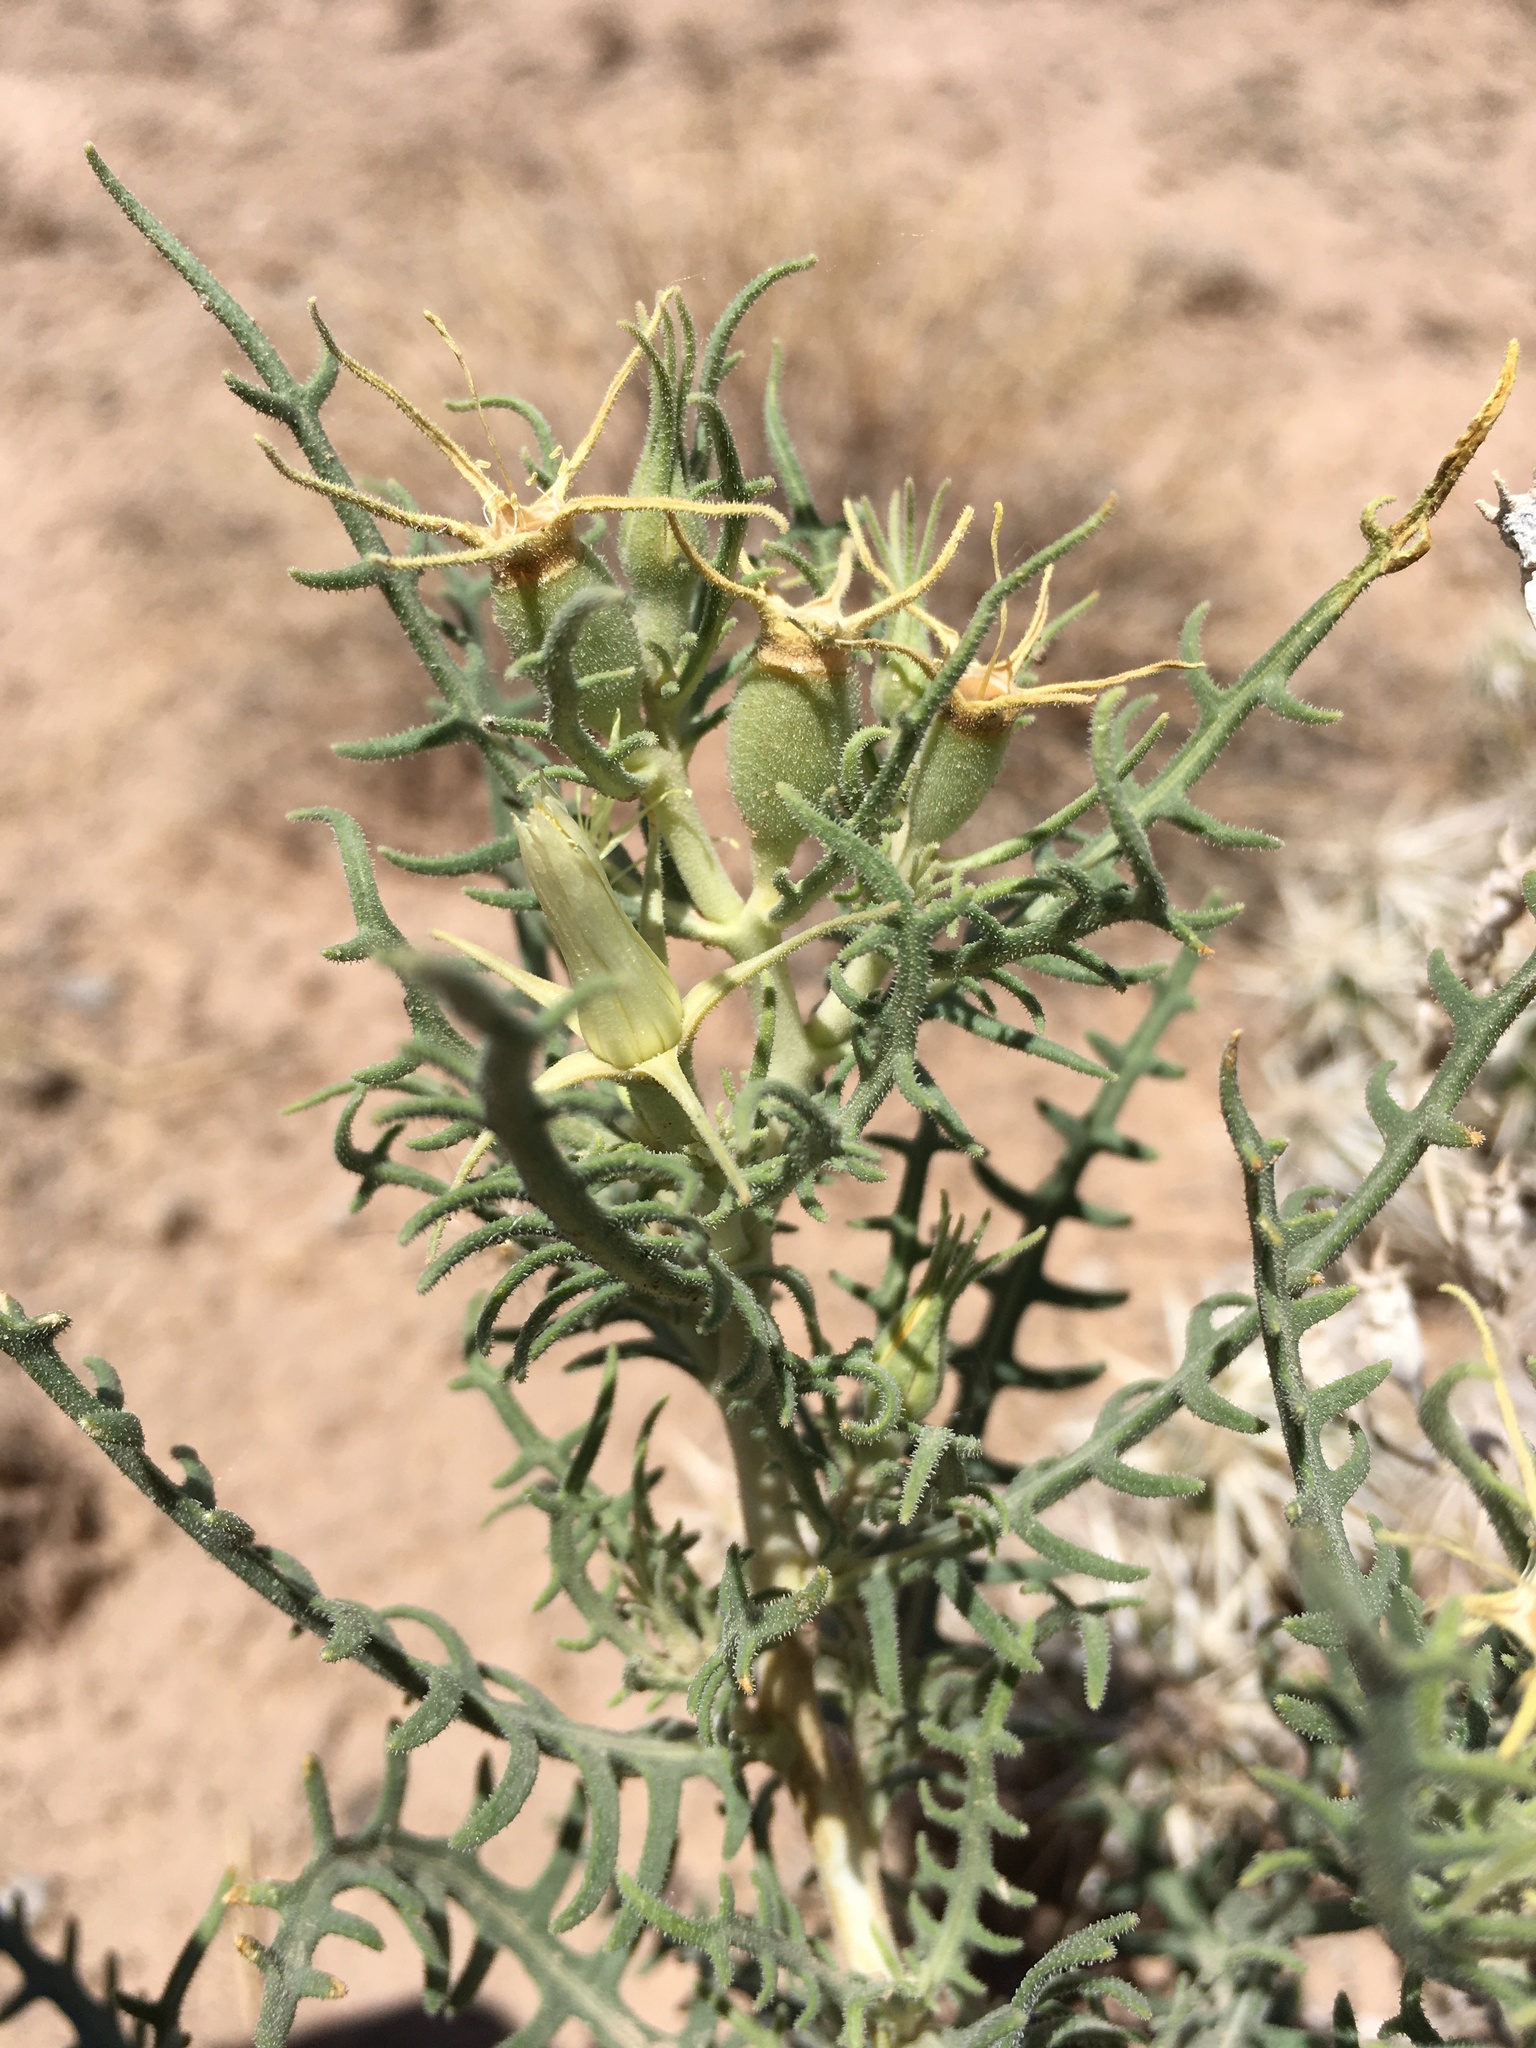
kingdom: Plantae
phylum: Tracheophyta
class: Magnoliopsida
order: Cornales
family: Loasaceae
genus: Mentzelia
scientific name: Mentzelia humilis
